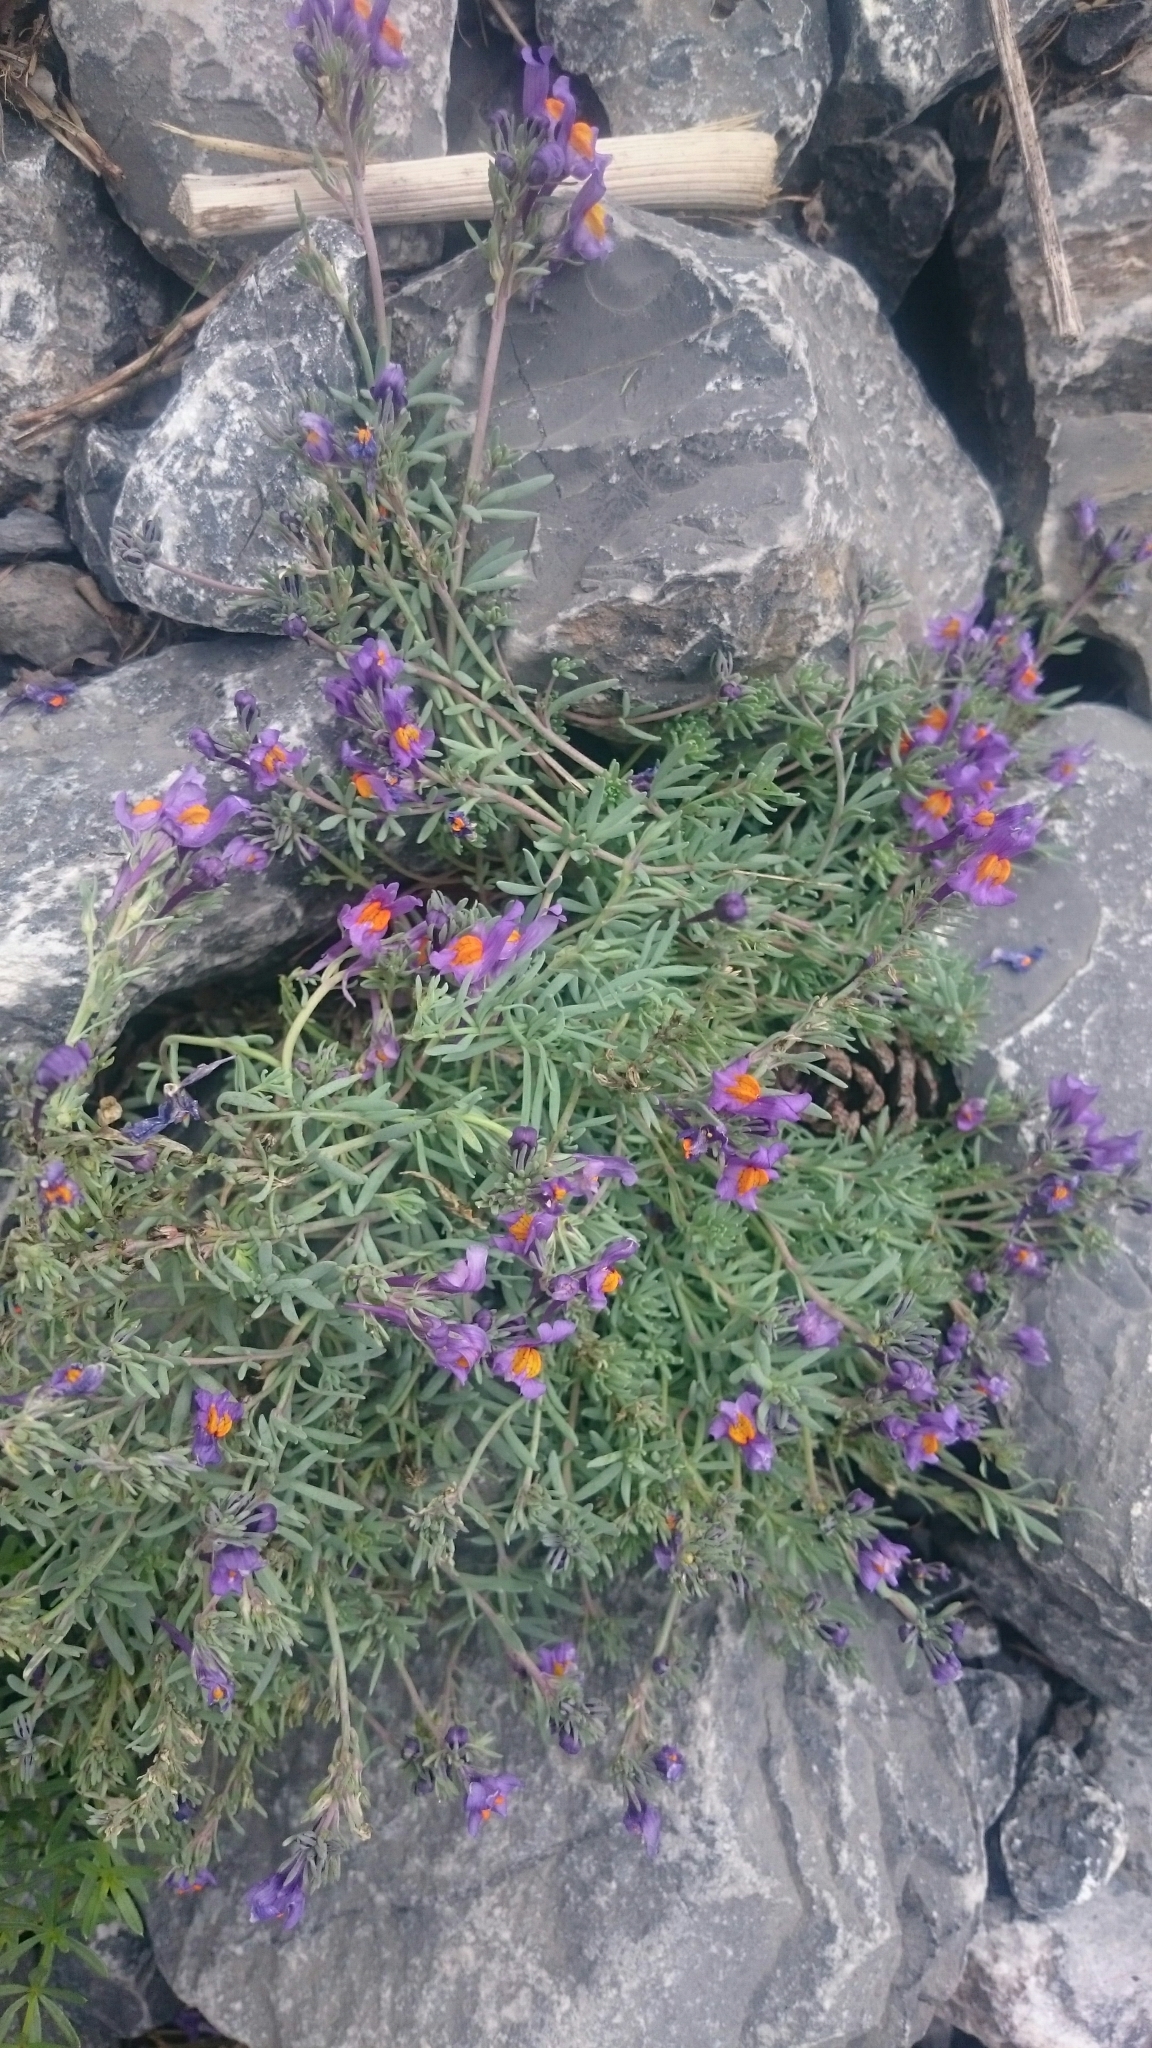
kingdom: Plantae
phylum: Tracheophyta
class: Magnoliopsida
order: Lamiales
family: Plantaginaceae
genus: Linaria
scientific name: Linaria alpina
